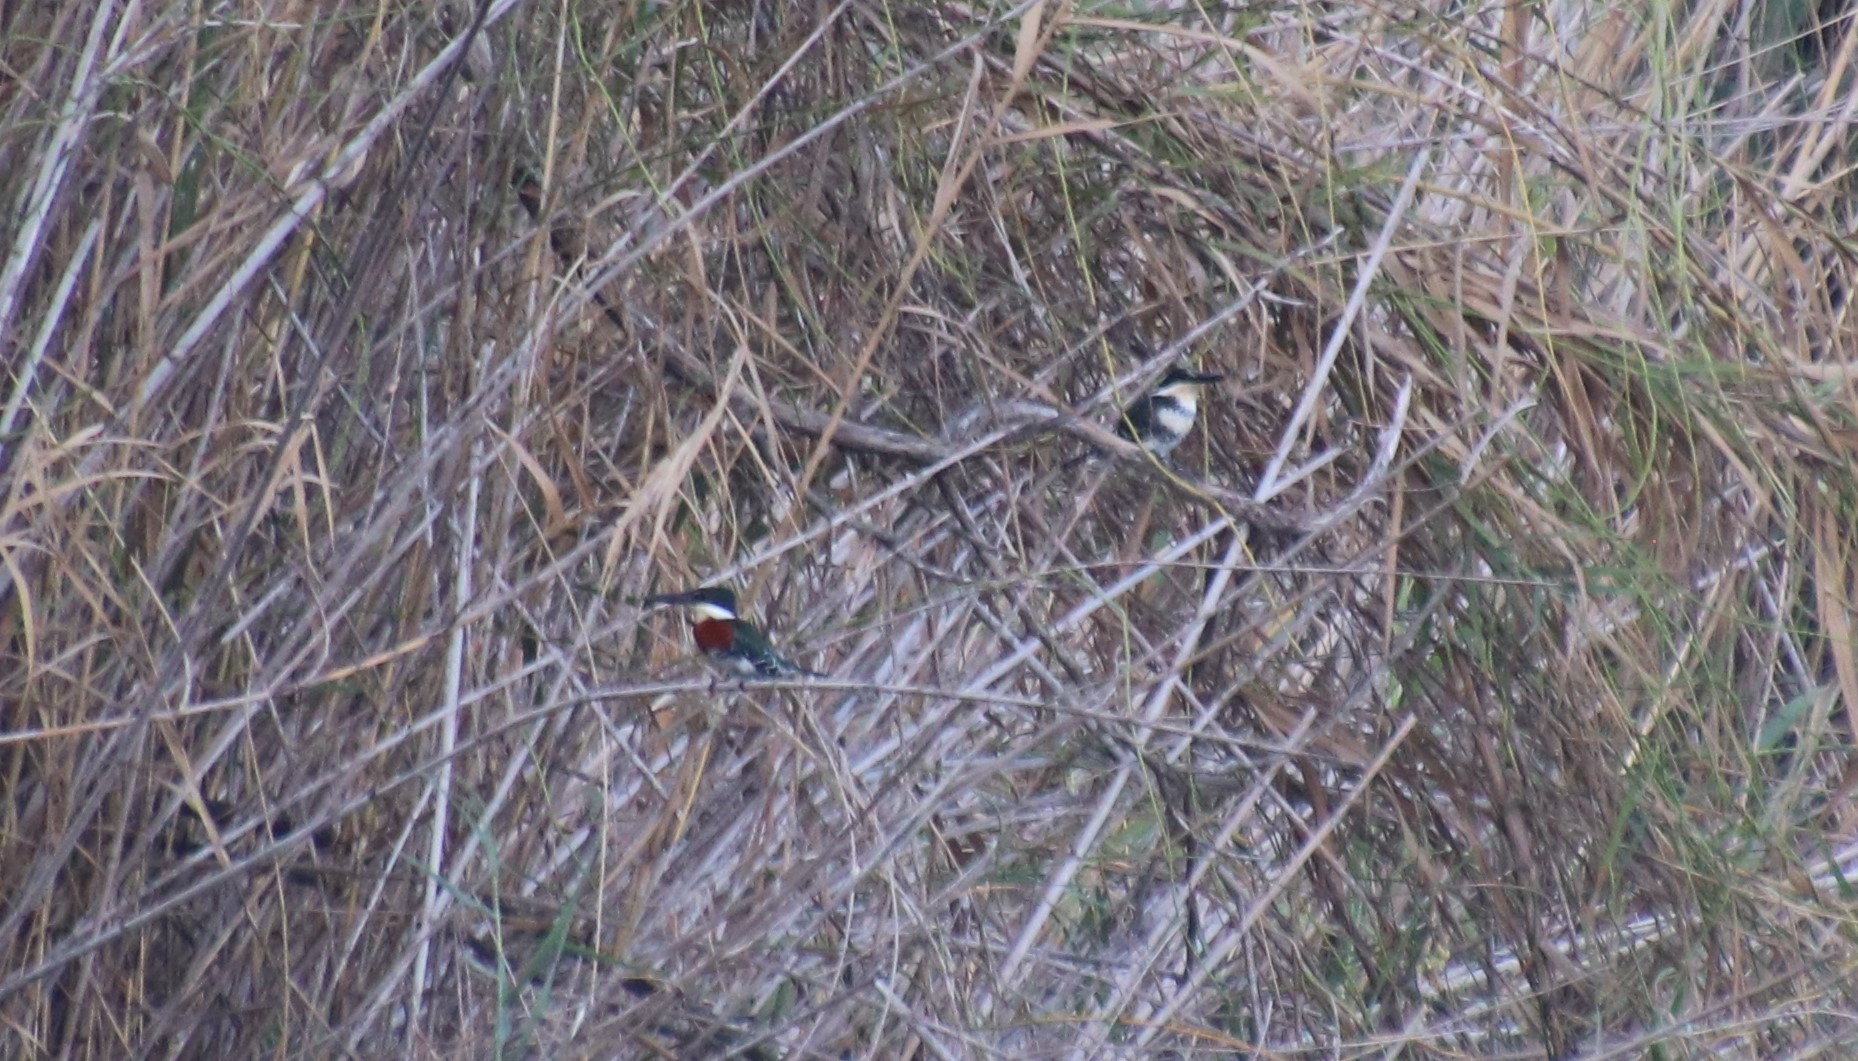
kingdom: Animalia
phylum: Chordata
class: Aves
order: Coraciiformes
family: Alcedinidae
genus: Chloroceryle
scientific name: Chloroceryle americana
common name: Green kingfisher
